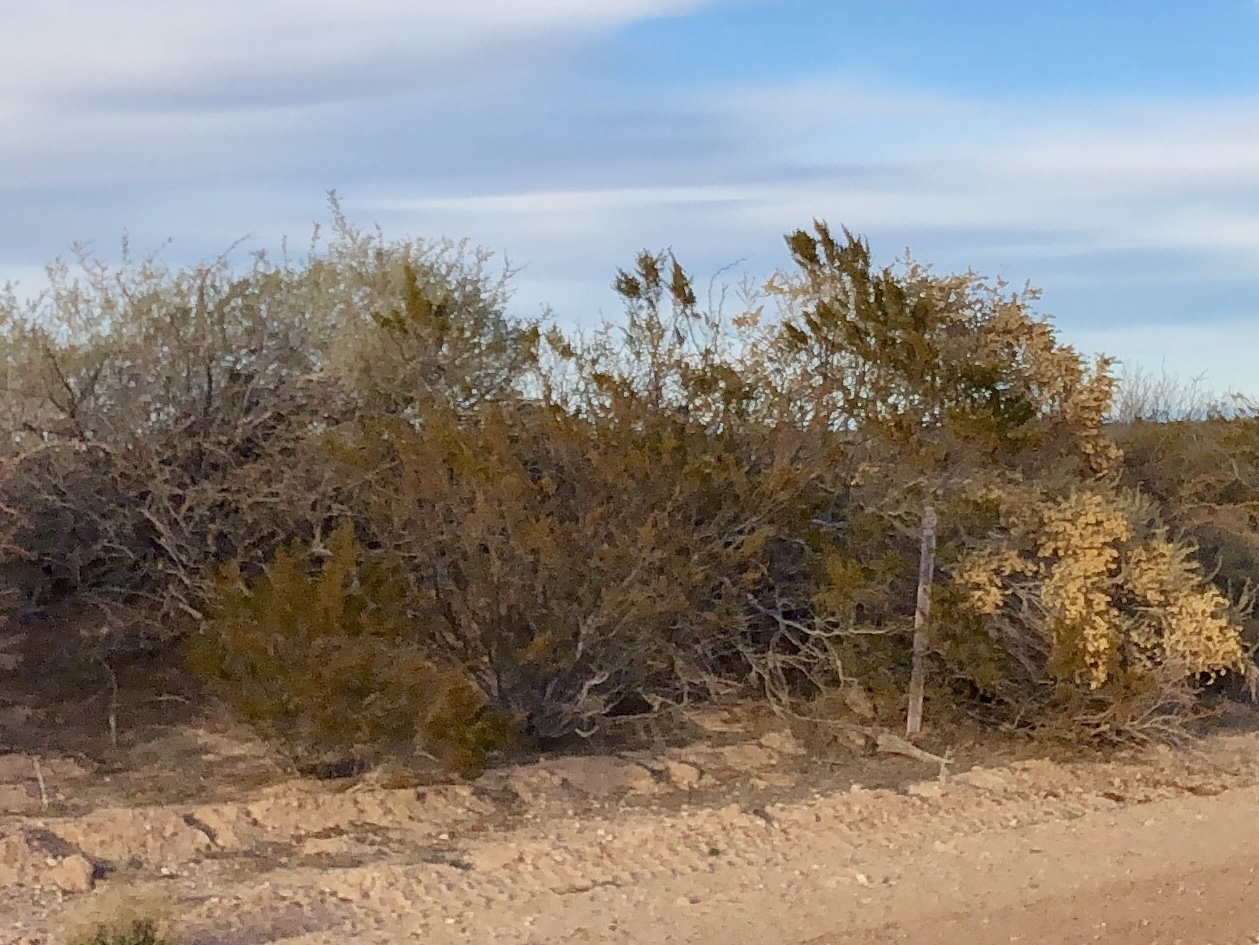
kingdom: Plantae
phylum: Tracheophyta
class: Magnoliopsida
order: Zygophyllales
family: Zygophyllaceae
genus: Larrea
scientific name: Larrea tridentata
